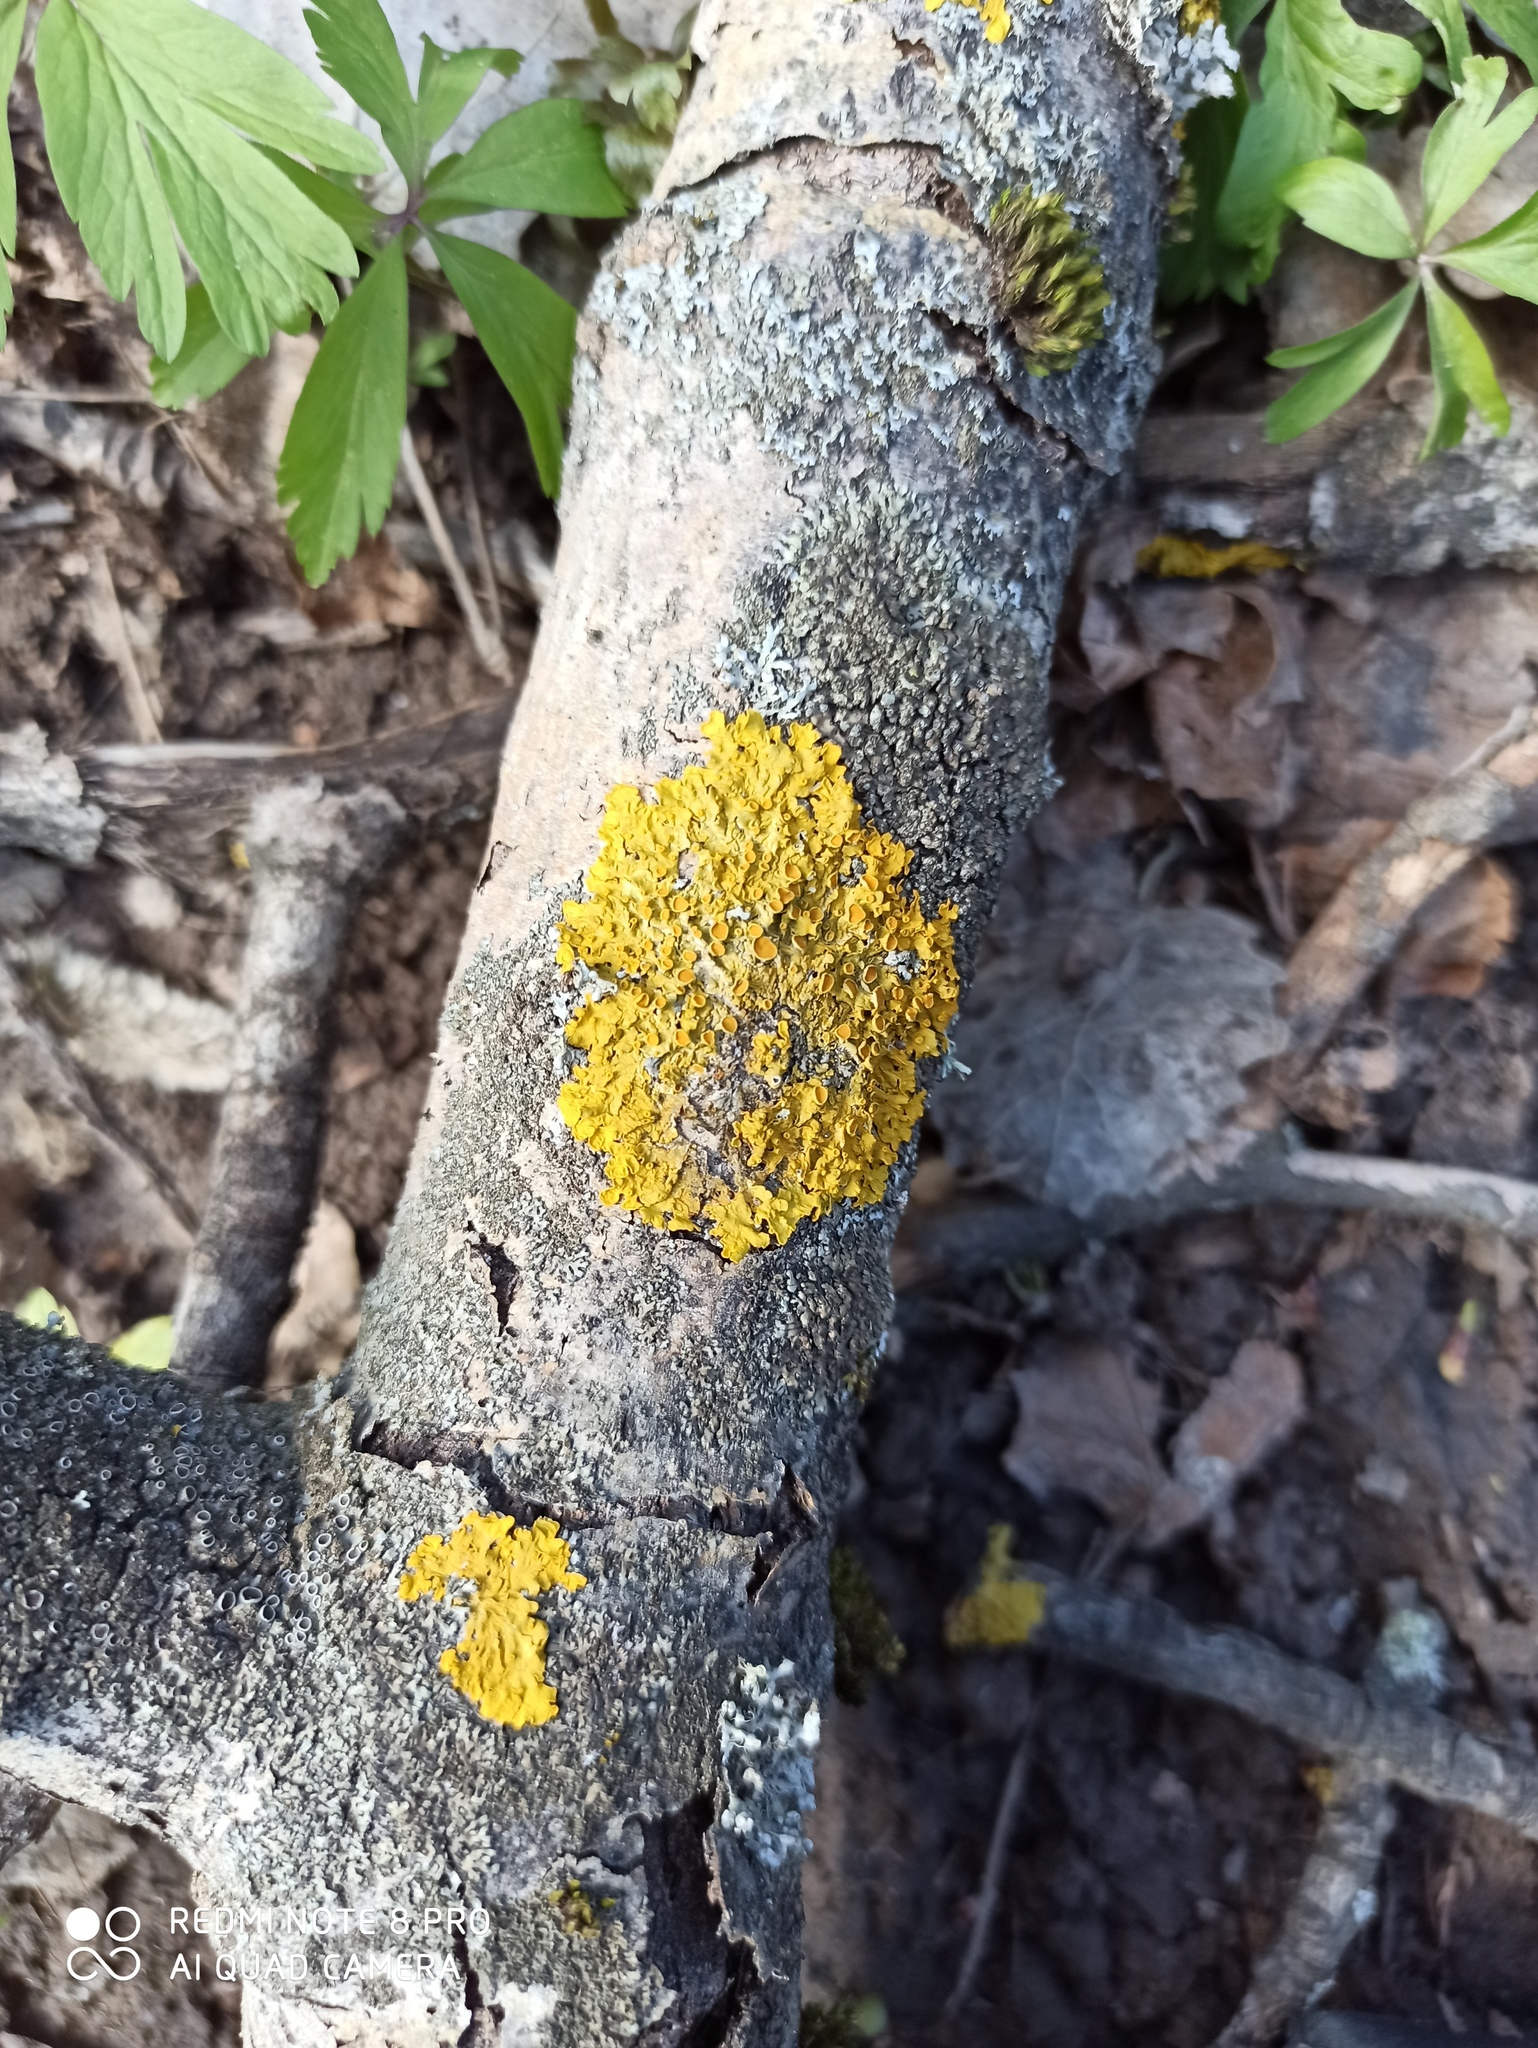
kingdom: Fungi
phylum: Ascomycota
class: Lecanoromycetes
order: Teloschistales
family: Teloschistaceae
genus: Xanthoria
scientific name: Xanthoria parietina
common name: Common orange lichen
